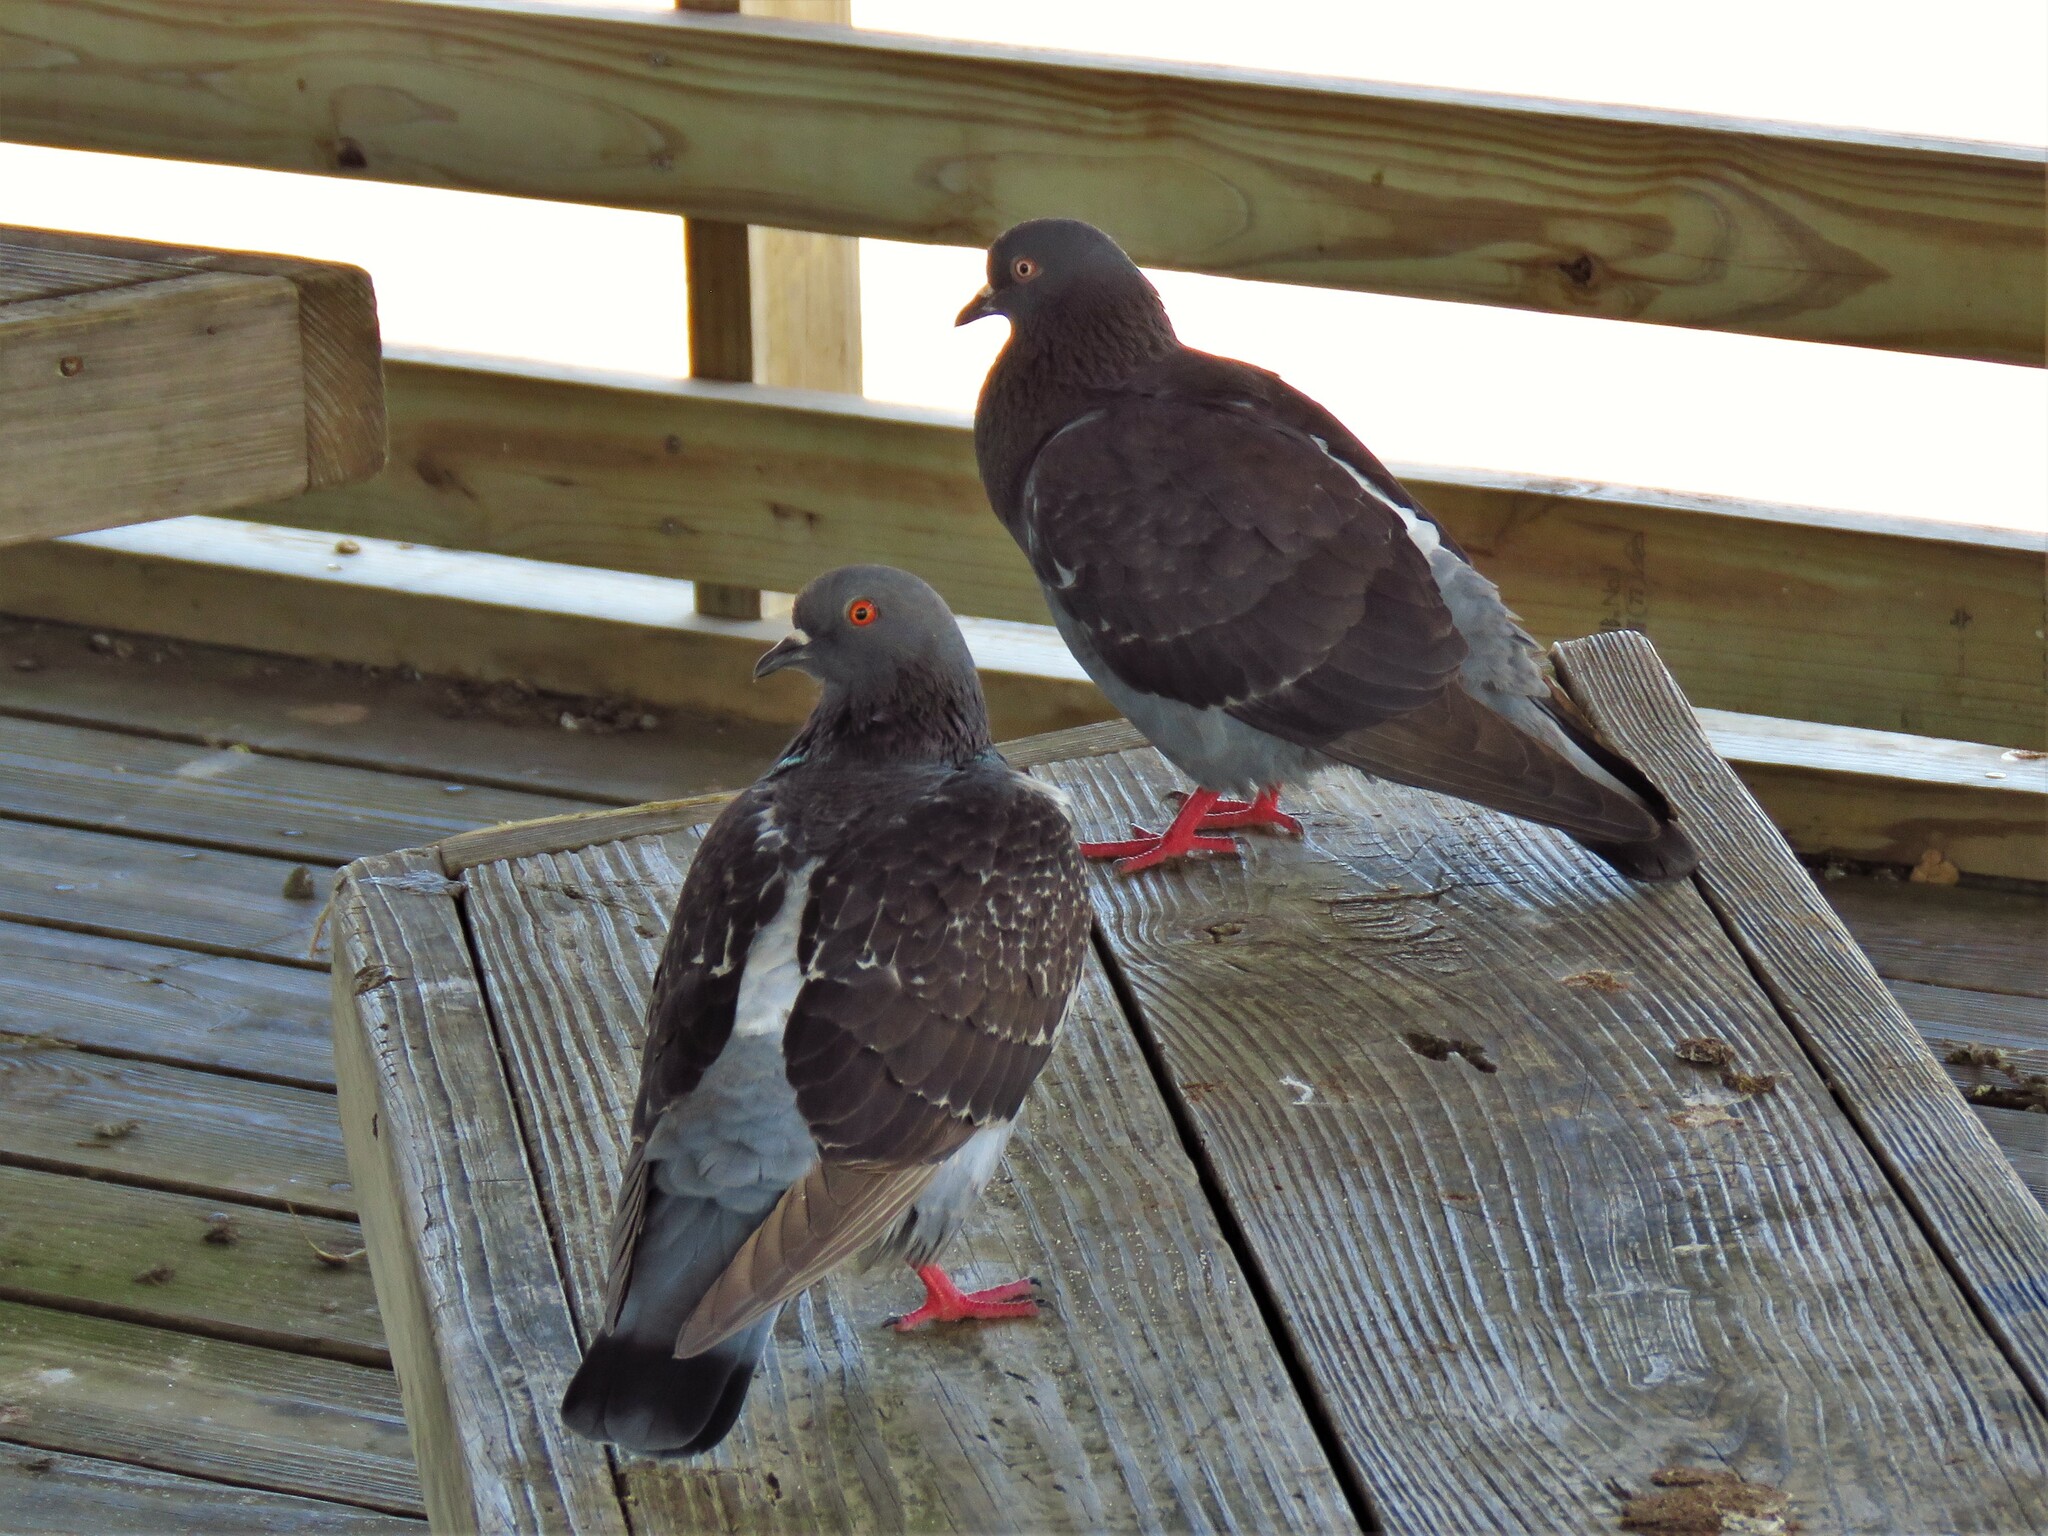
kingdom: Animalia
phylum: Chordata
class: Aves
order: Columbiformes
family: Columbidae
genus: Columba
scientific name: Columba livia
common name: Rock pigeon
